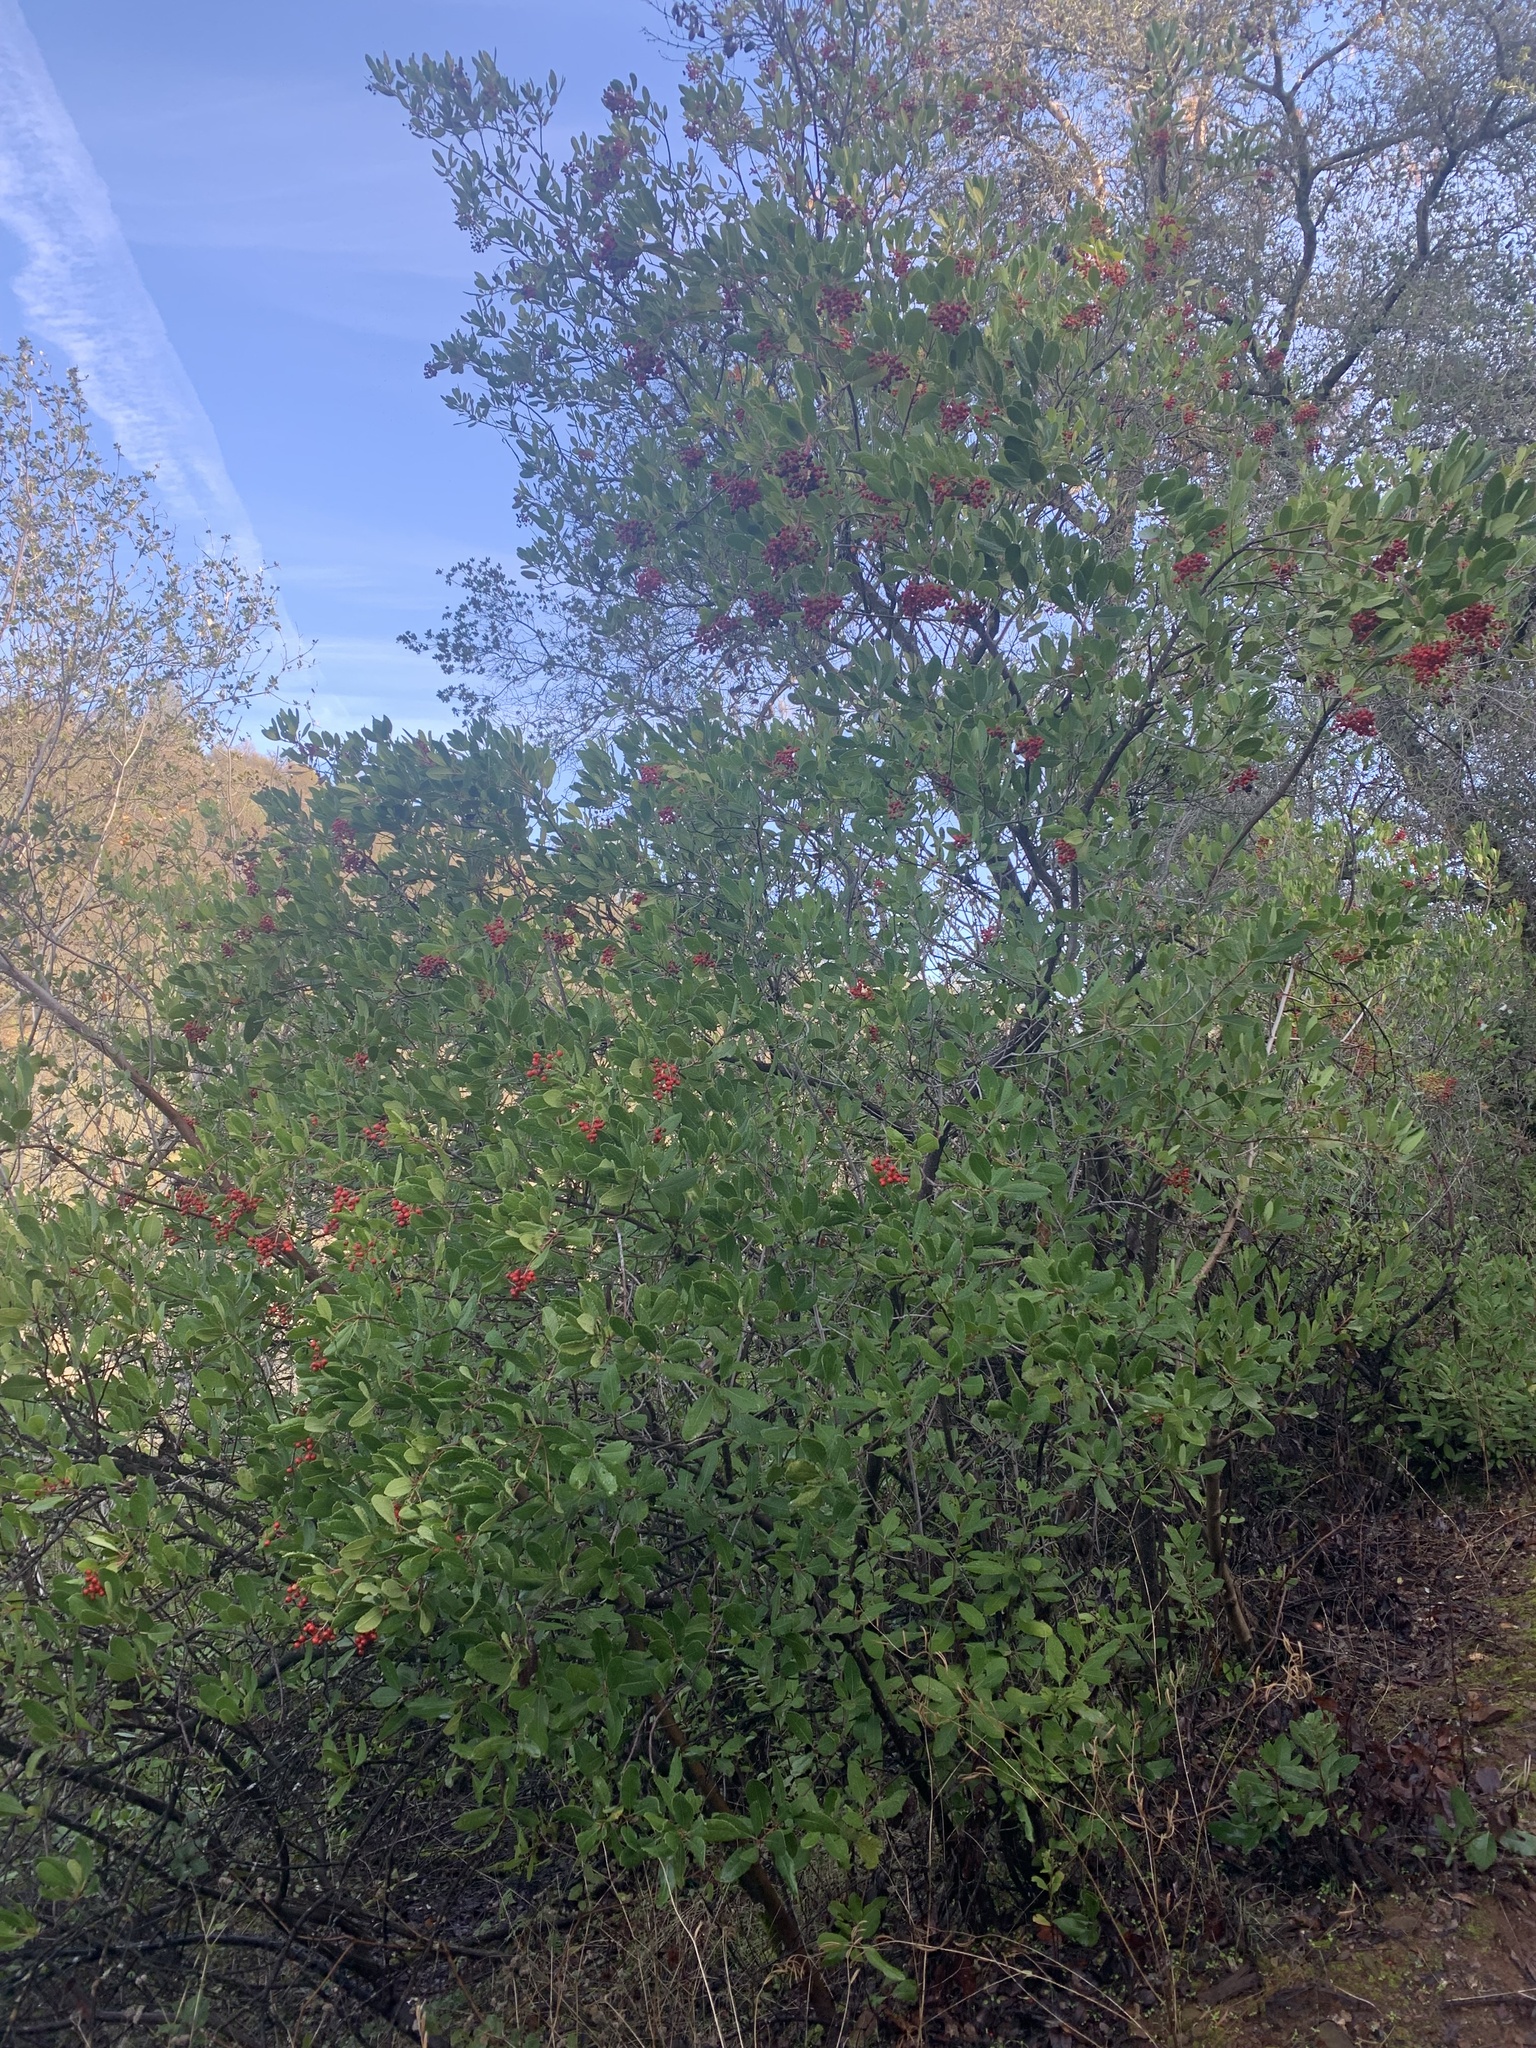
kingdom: Plantae
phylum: Tracheophyta
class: Magnoliopsida
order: Rosales
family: Rosaceae
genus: Heteromeles
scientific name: Heteromeles arbutifolia
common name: California-holly
